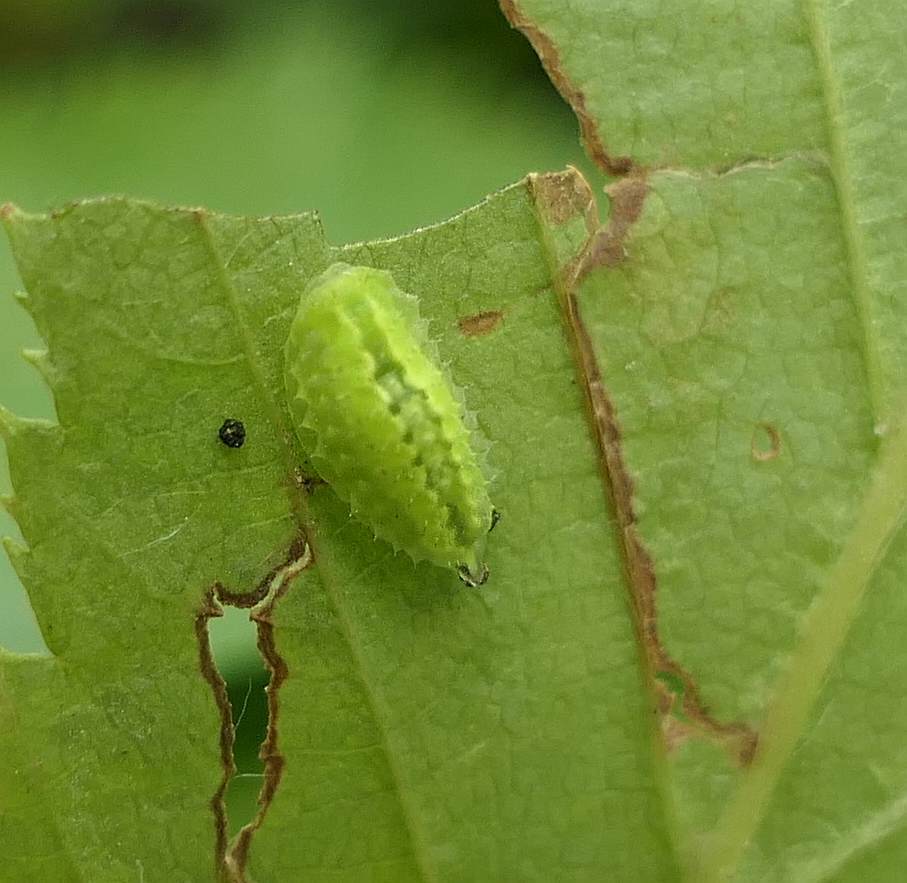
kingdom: Animalia
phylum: Arthropoda
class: Insecta
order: Lepidoptera
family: Limacodidae
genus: Packardia
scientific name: Packardia elegans
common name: Elegant tailed slug moth
